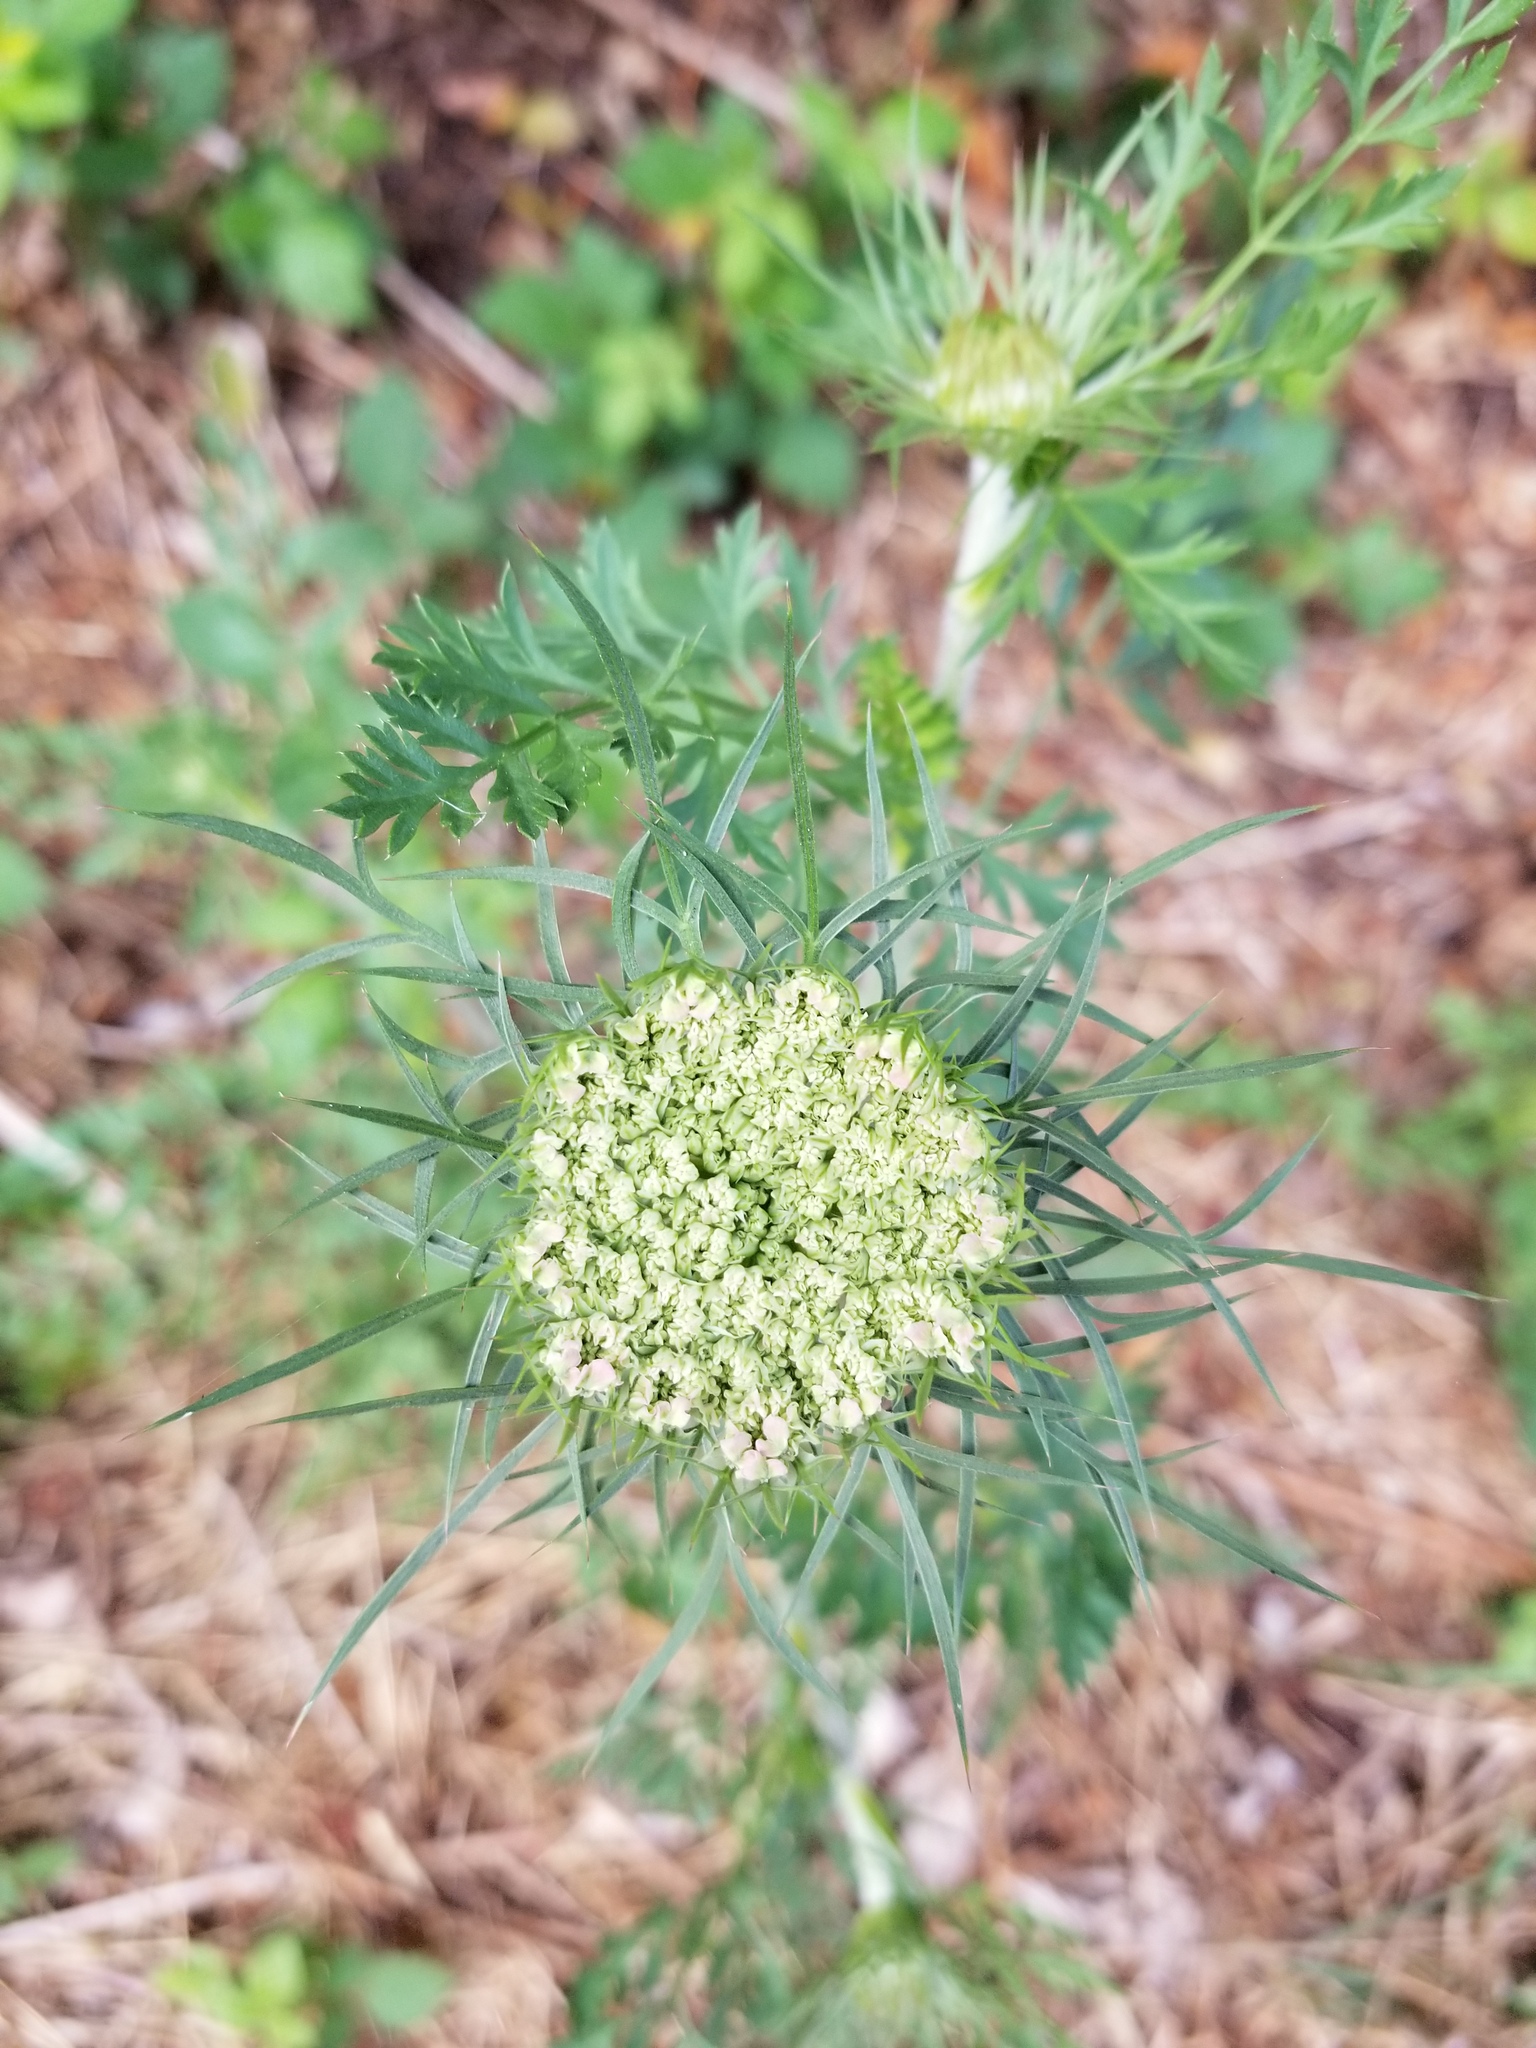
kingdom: Plantae
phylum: Tracheophyta
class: Magnoliopsida
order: Apiales
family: Apiaceae
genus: Daucus
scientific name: Daucus carota
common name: Wild carrot
